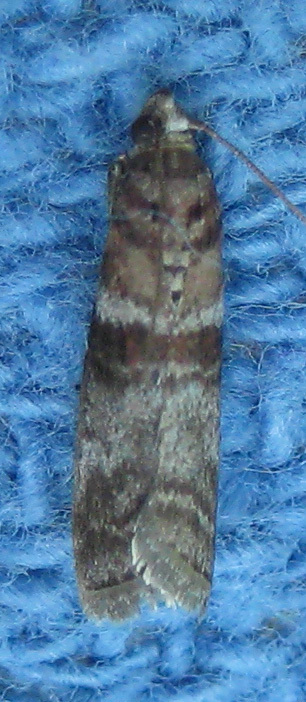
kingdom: Animalia
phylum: Arthropoda
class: Insecta
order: Lepidoptera
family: Pyralidae
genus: Sciota
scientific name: Sciota uvinella
